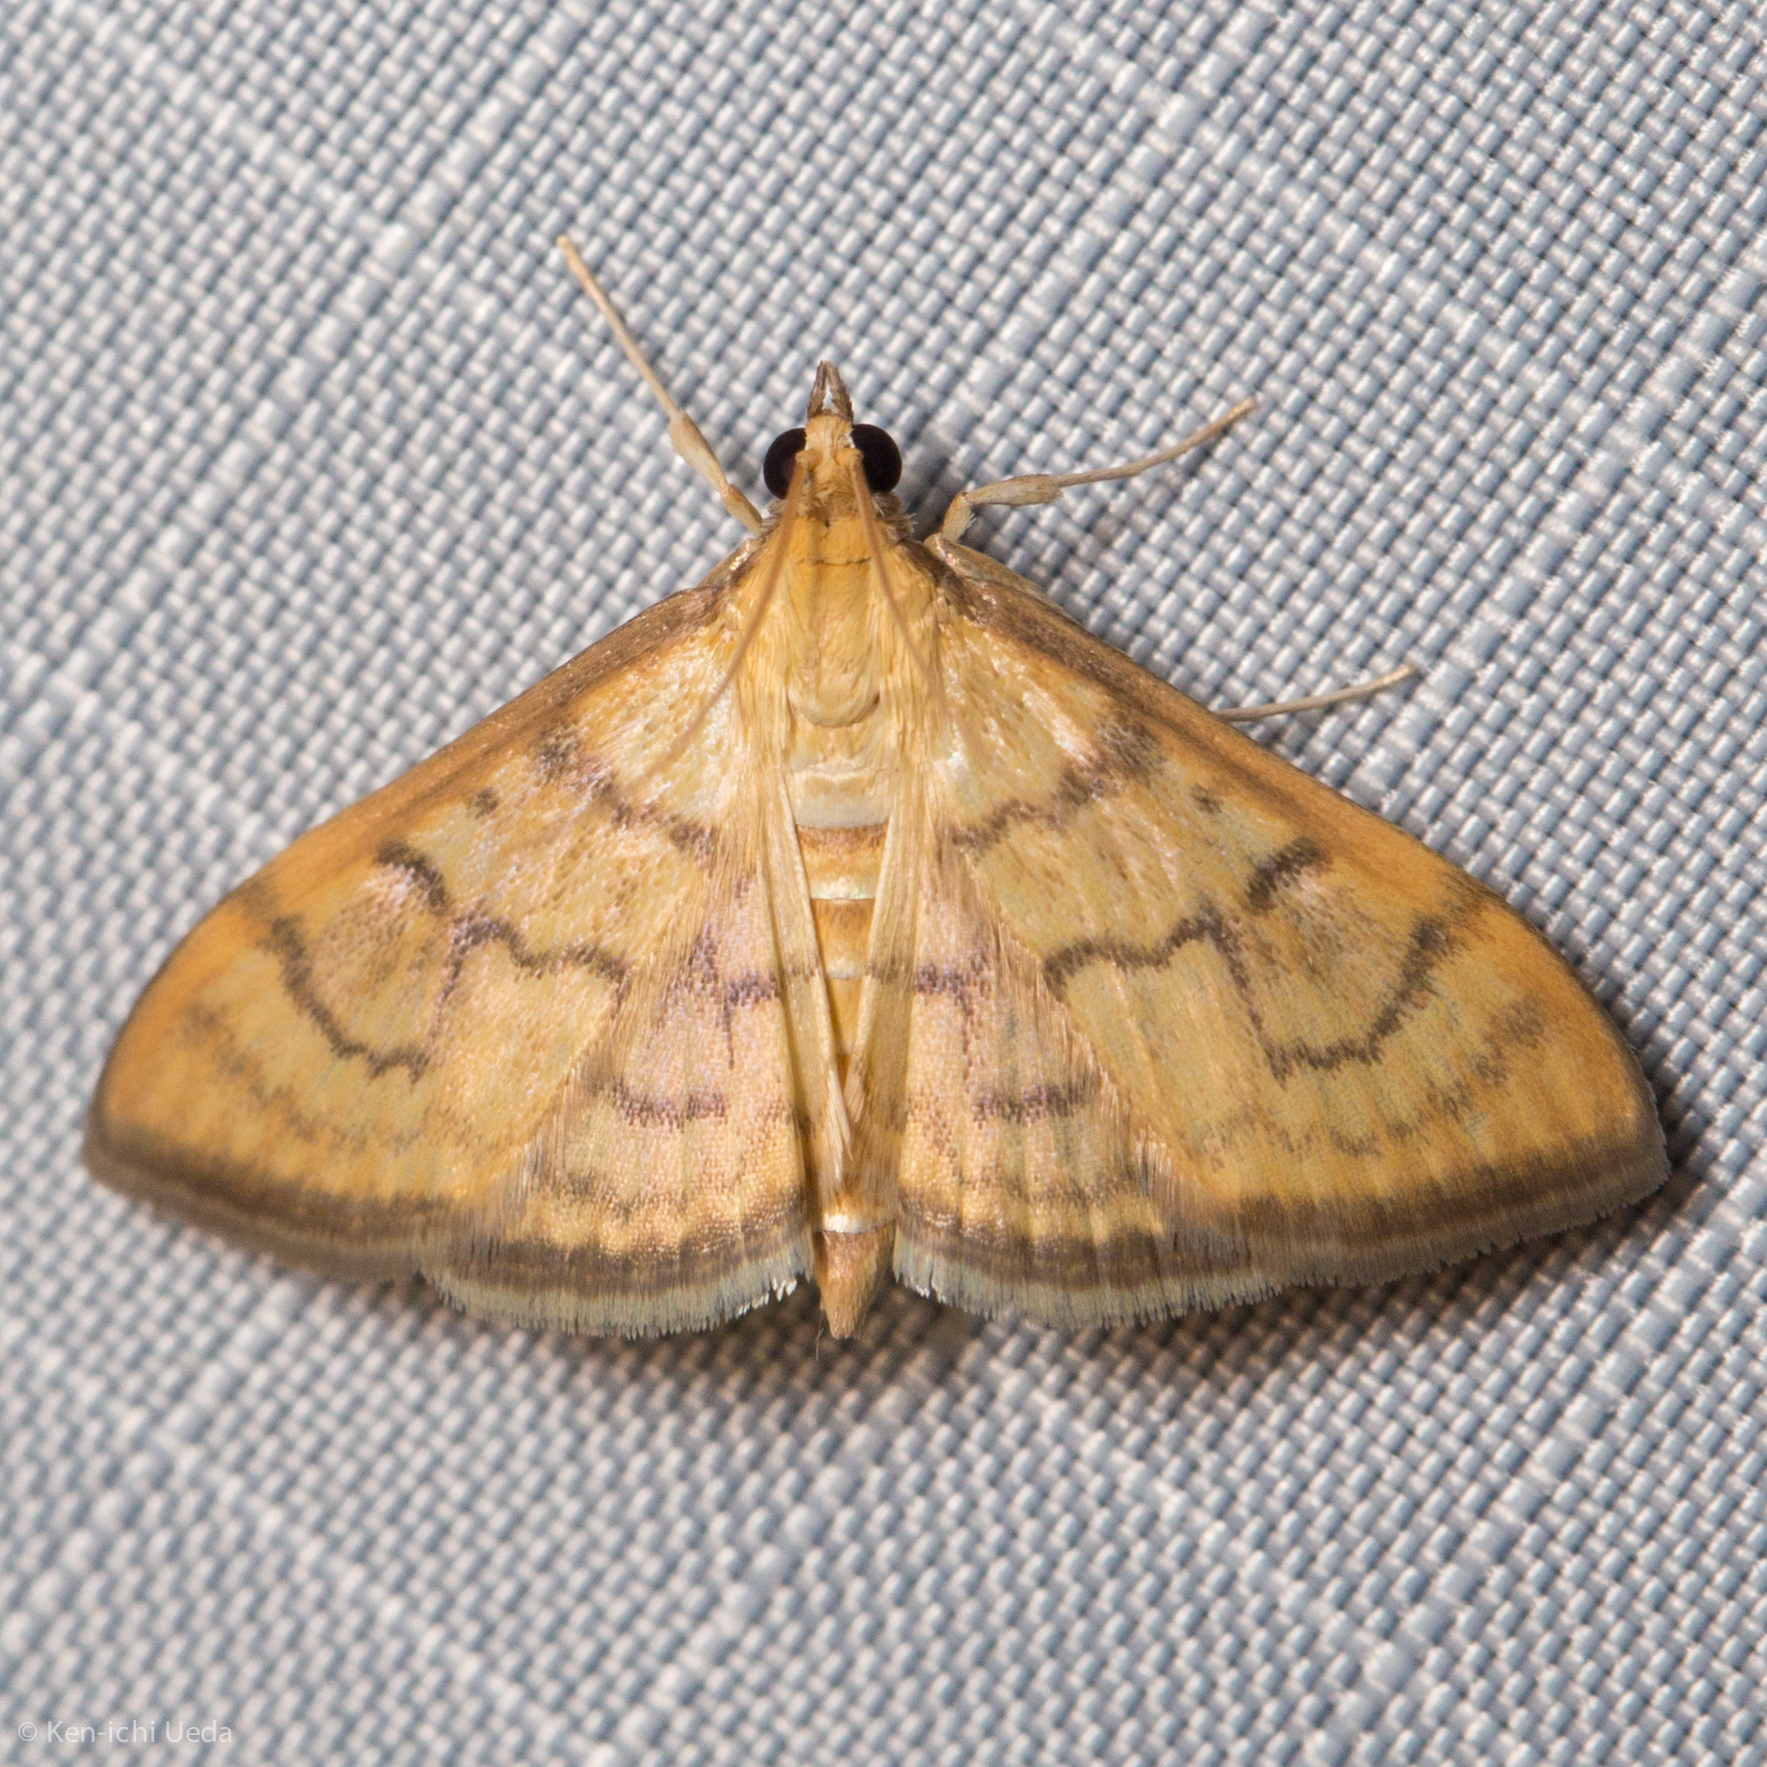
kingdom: Animalia
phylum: Arthropoda
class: Insecta
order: Lepidoptera
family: Crambidae
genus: Anania
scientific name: Anania labeculalis
